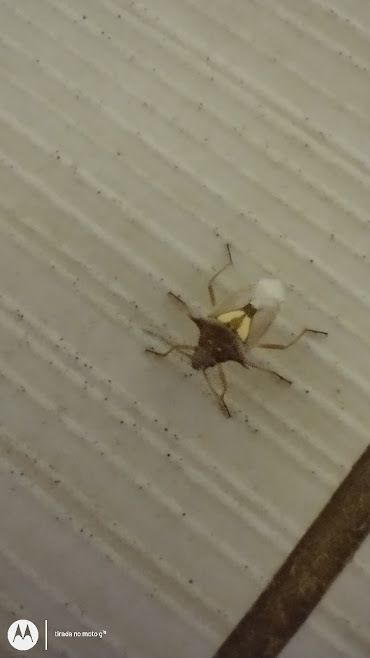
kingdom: Animalia
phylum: Arthropoda
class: Insecta
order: Hemiptera
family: Pentatomidae
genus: Oebalus
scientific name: Oebalus ypsilongriseus
